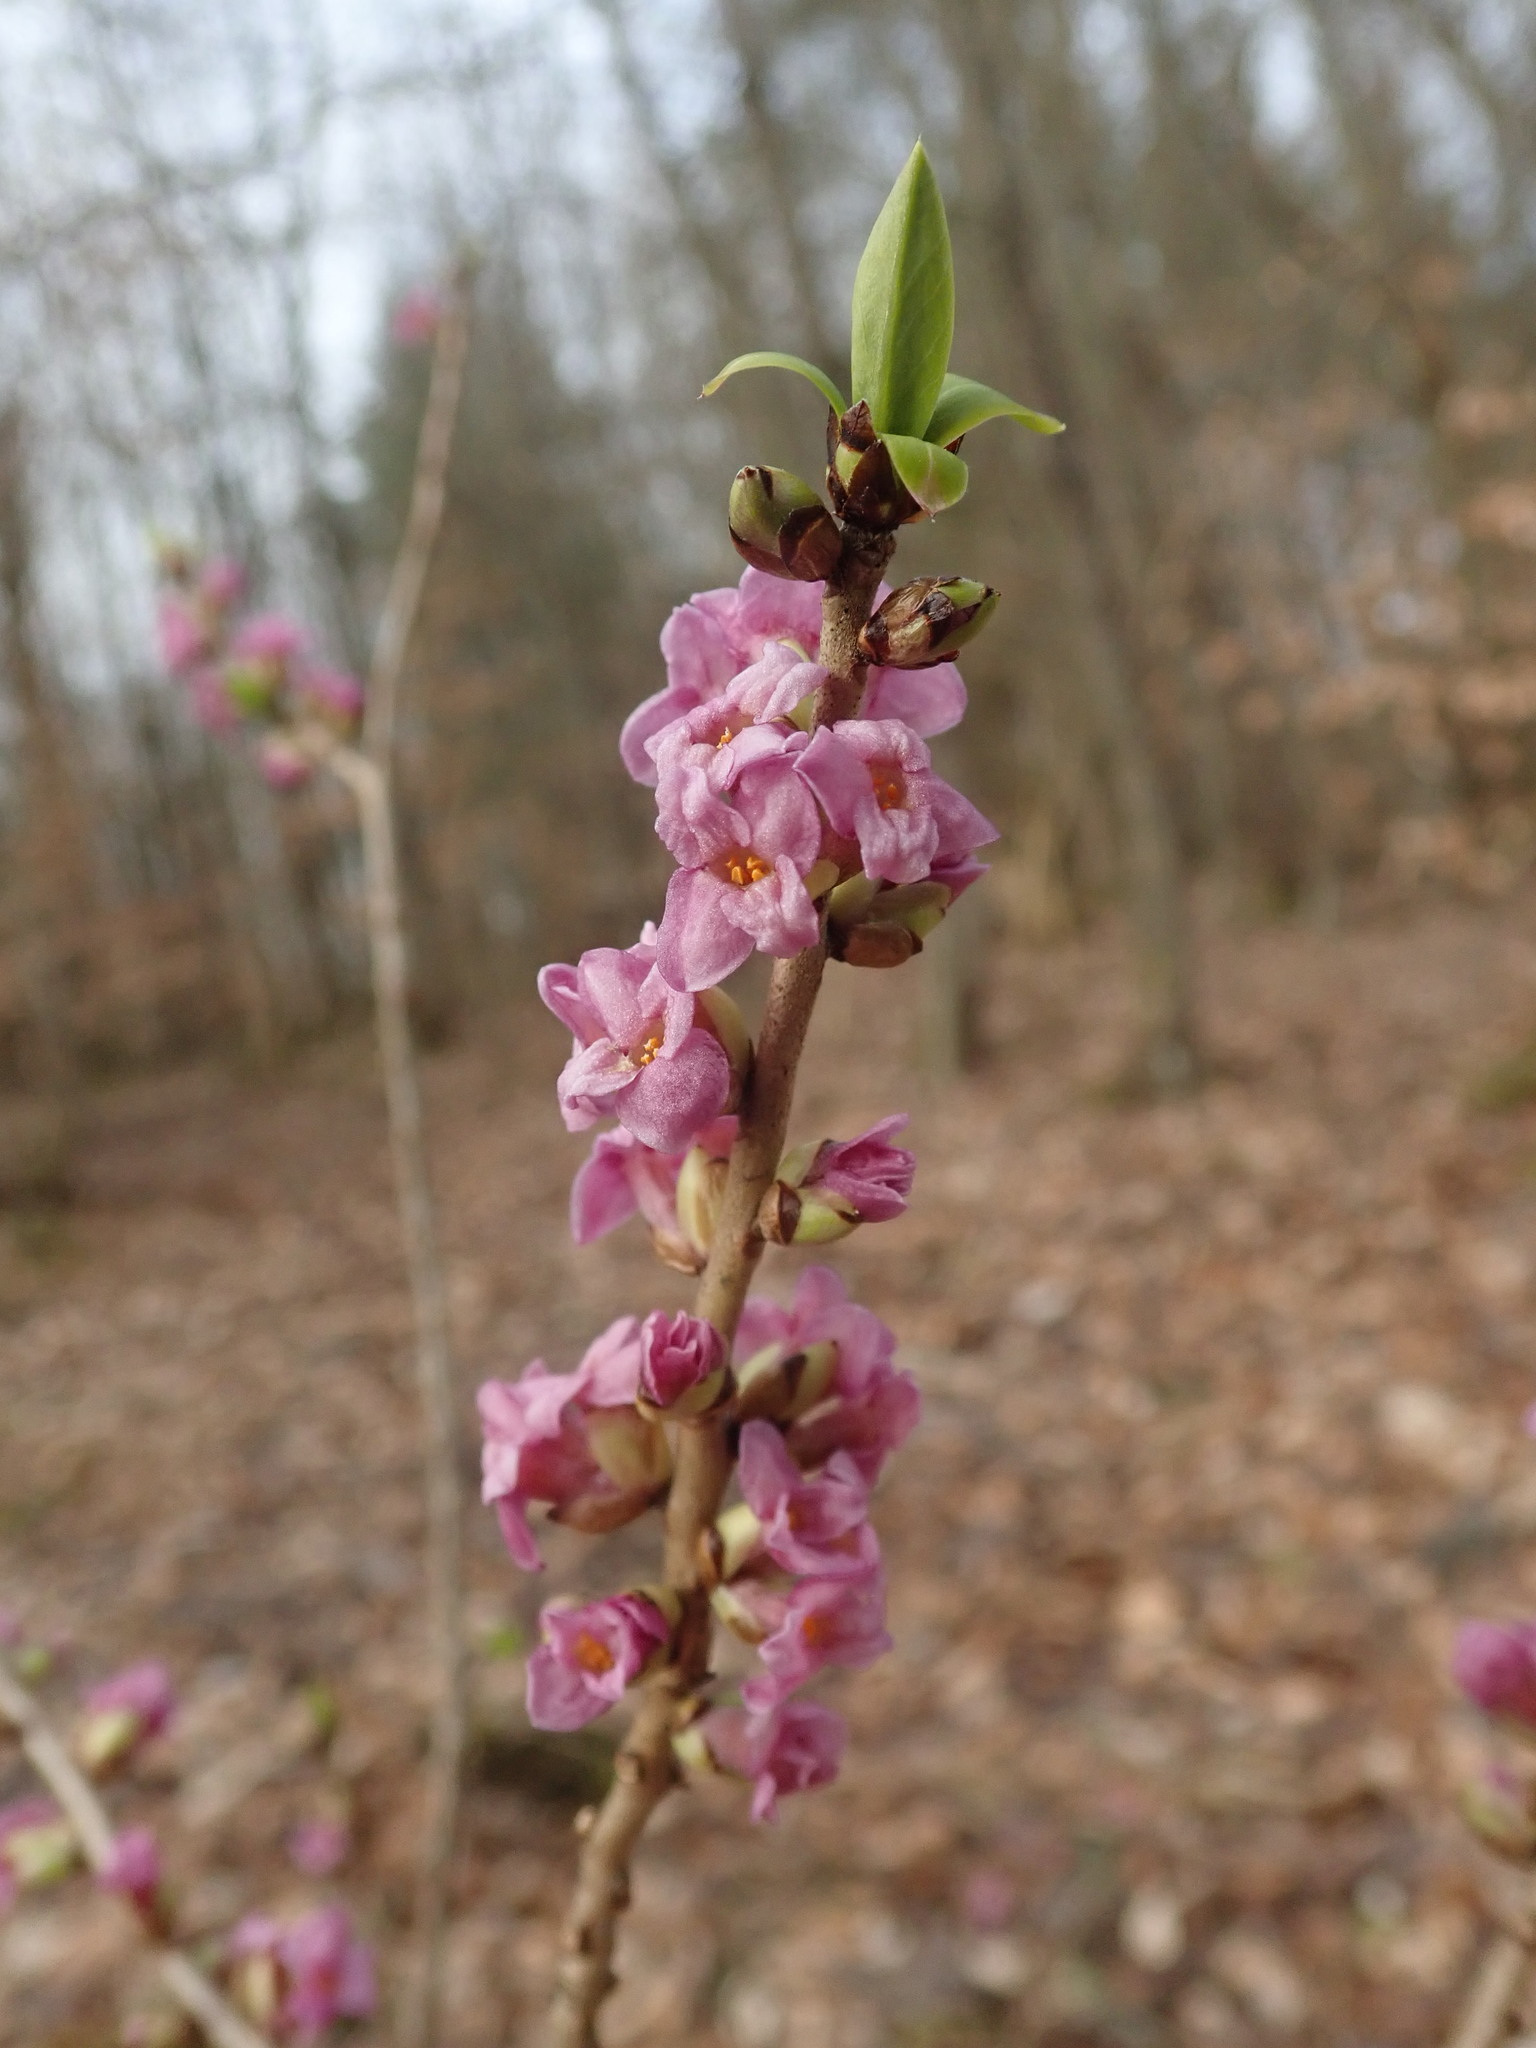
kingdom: Plantae
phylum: Tracheophyta
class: Magnoliopsida
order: Malvales
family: Thymelaeaceae
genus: Daphne
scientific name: Daphne mezereum
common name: Mezereon
